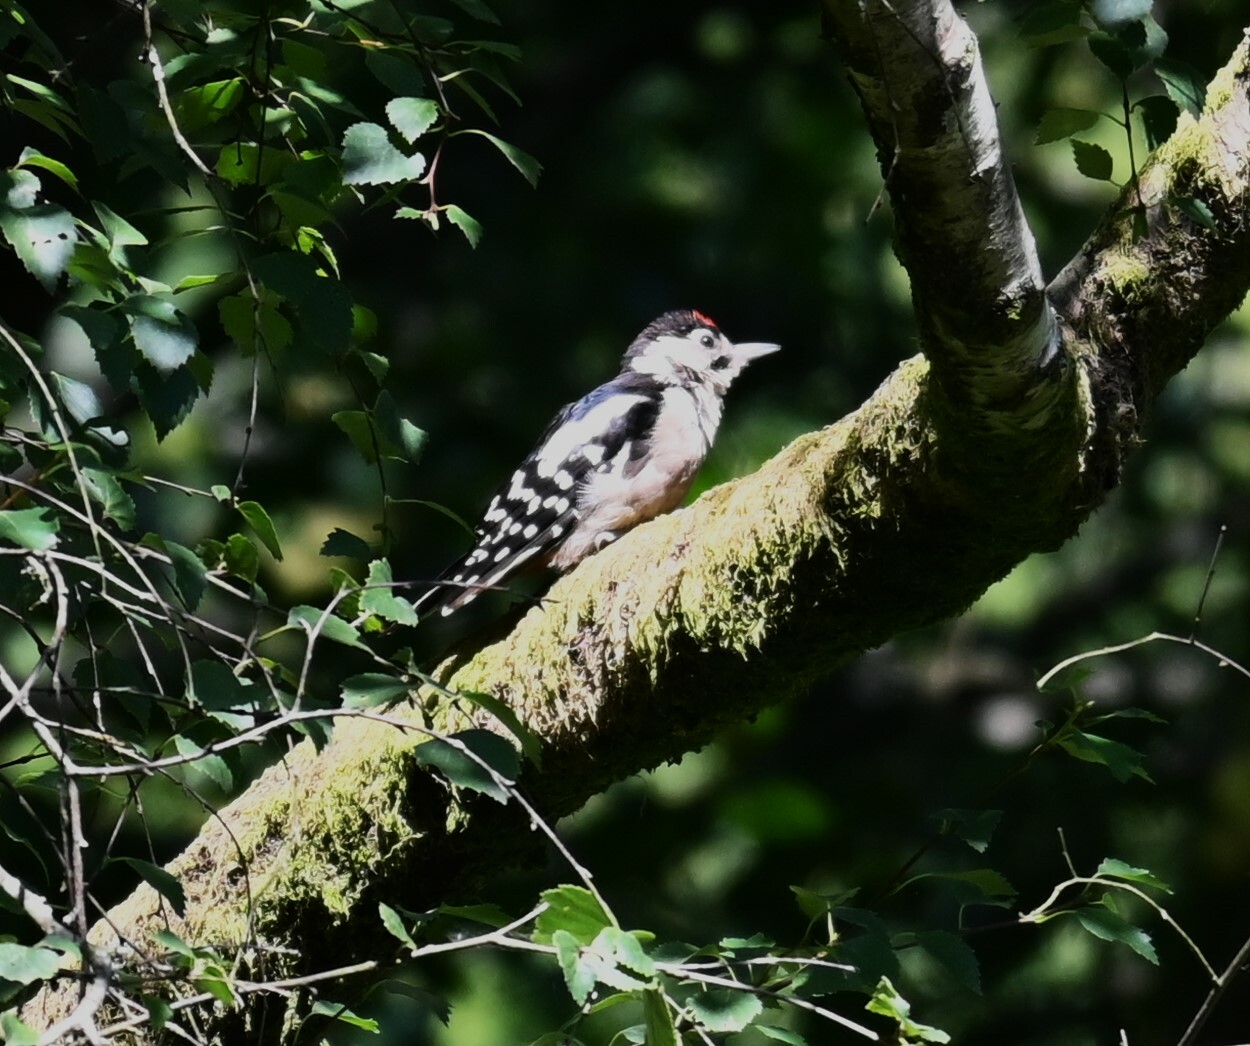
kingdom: Animalia
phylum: Chordata
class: Aves
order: Piciformes
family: Picidae
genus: Dendrocopos
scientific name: Dendrocopos major
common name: Great spotted woodpecker
